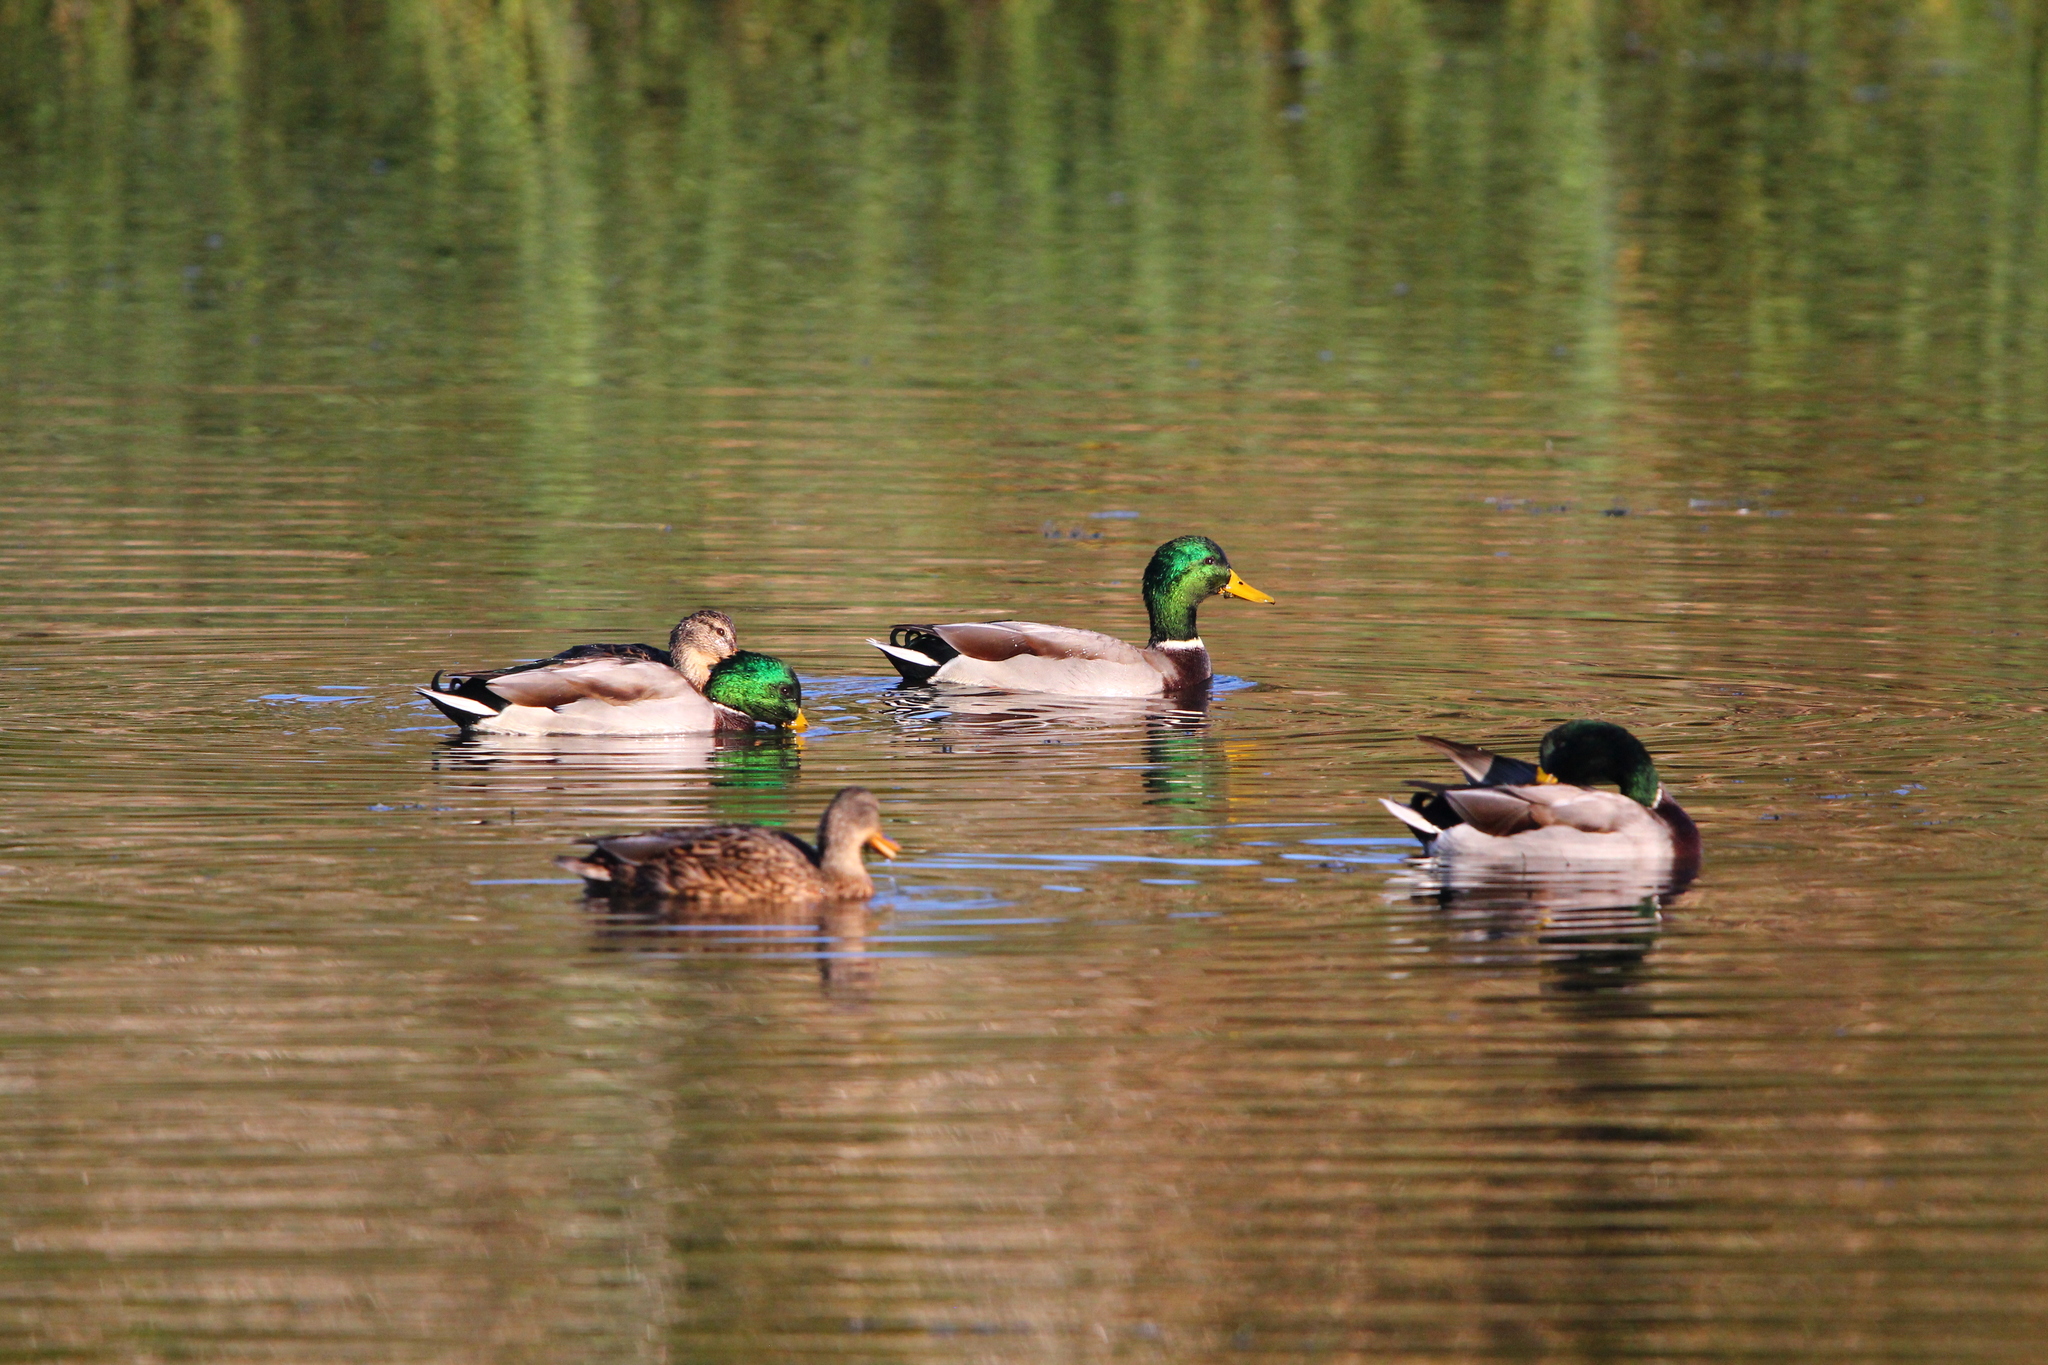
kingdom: Animalia
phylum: Chordata
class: Aves
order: Anseriformes
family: Anatidae
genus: Anas
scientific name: Anas platyrhynchos
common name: Mallard
